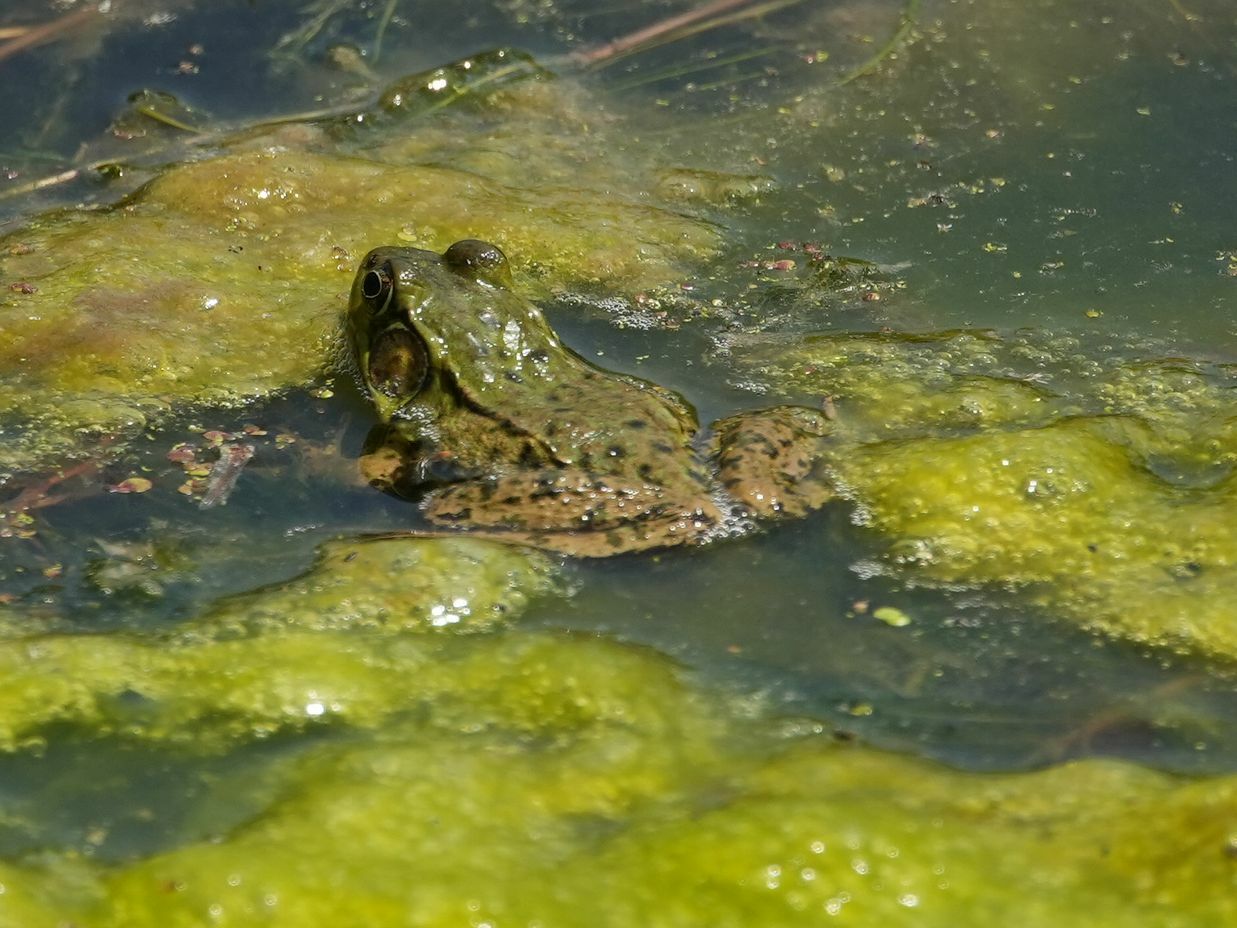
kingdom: Animalia
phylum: Chordata
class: Amphibia
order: Anura
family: Ranidae
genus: Lithobates
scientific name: Lithobates clamitans
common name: Green frog
